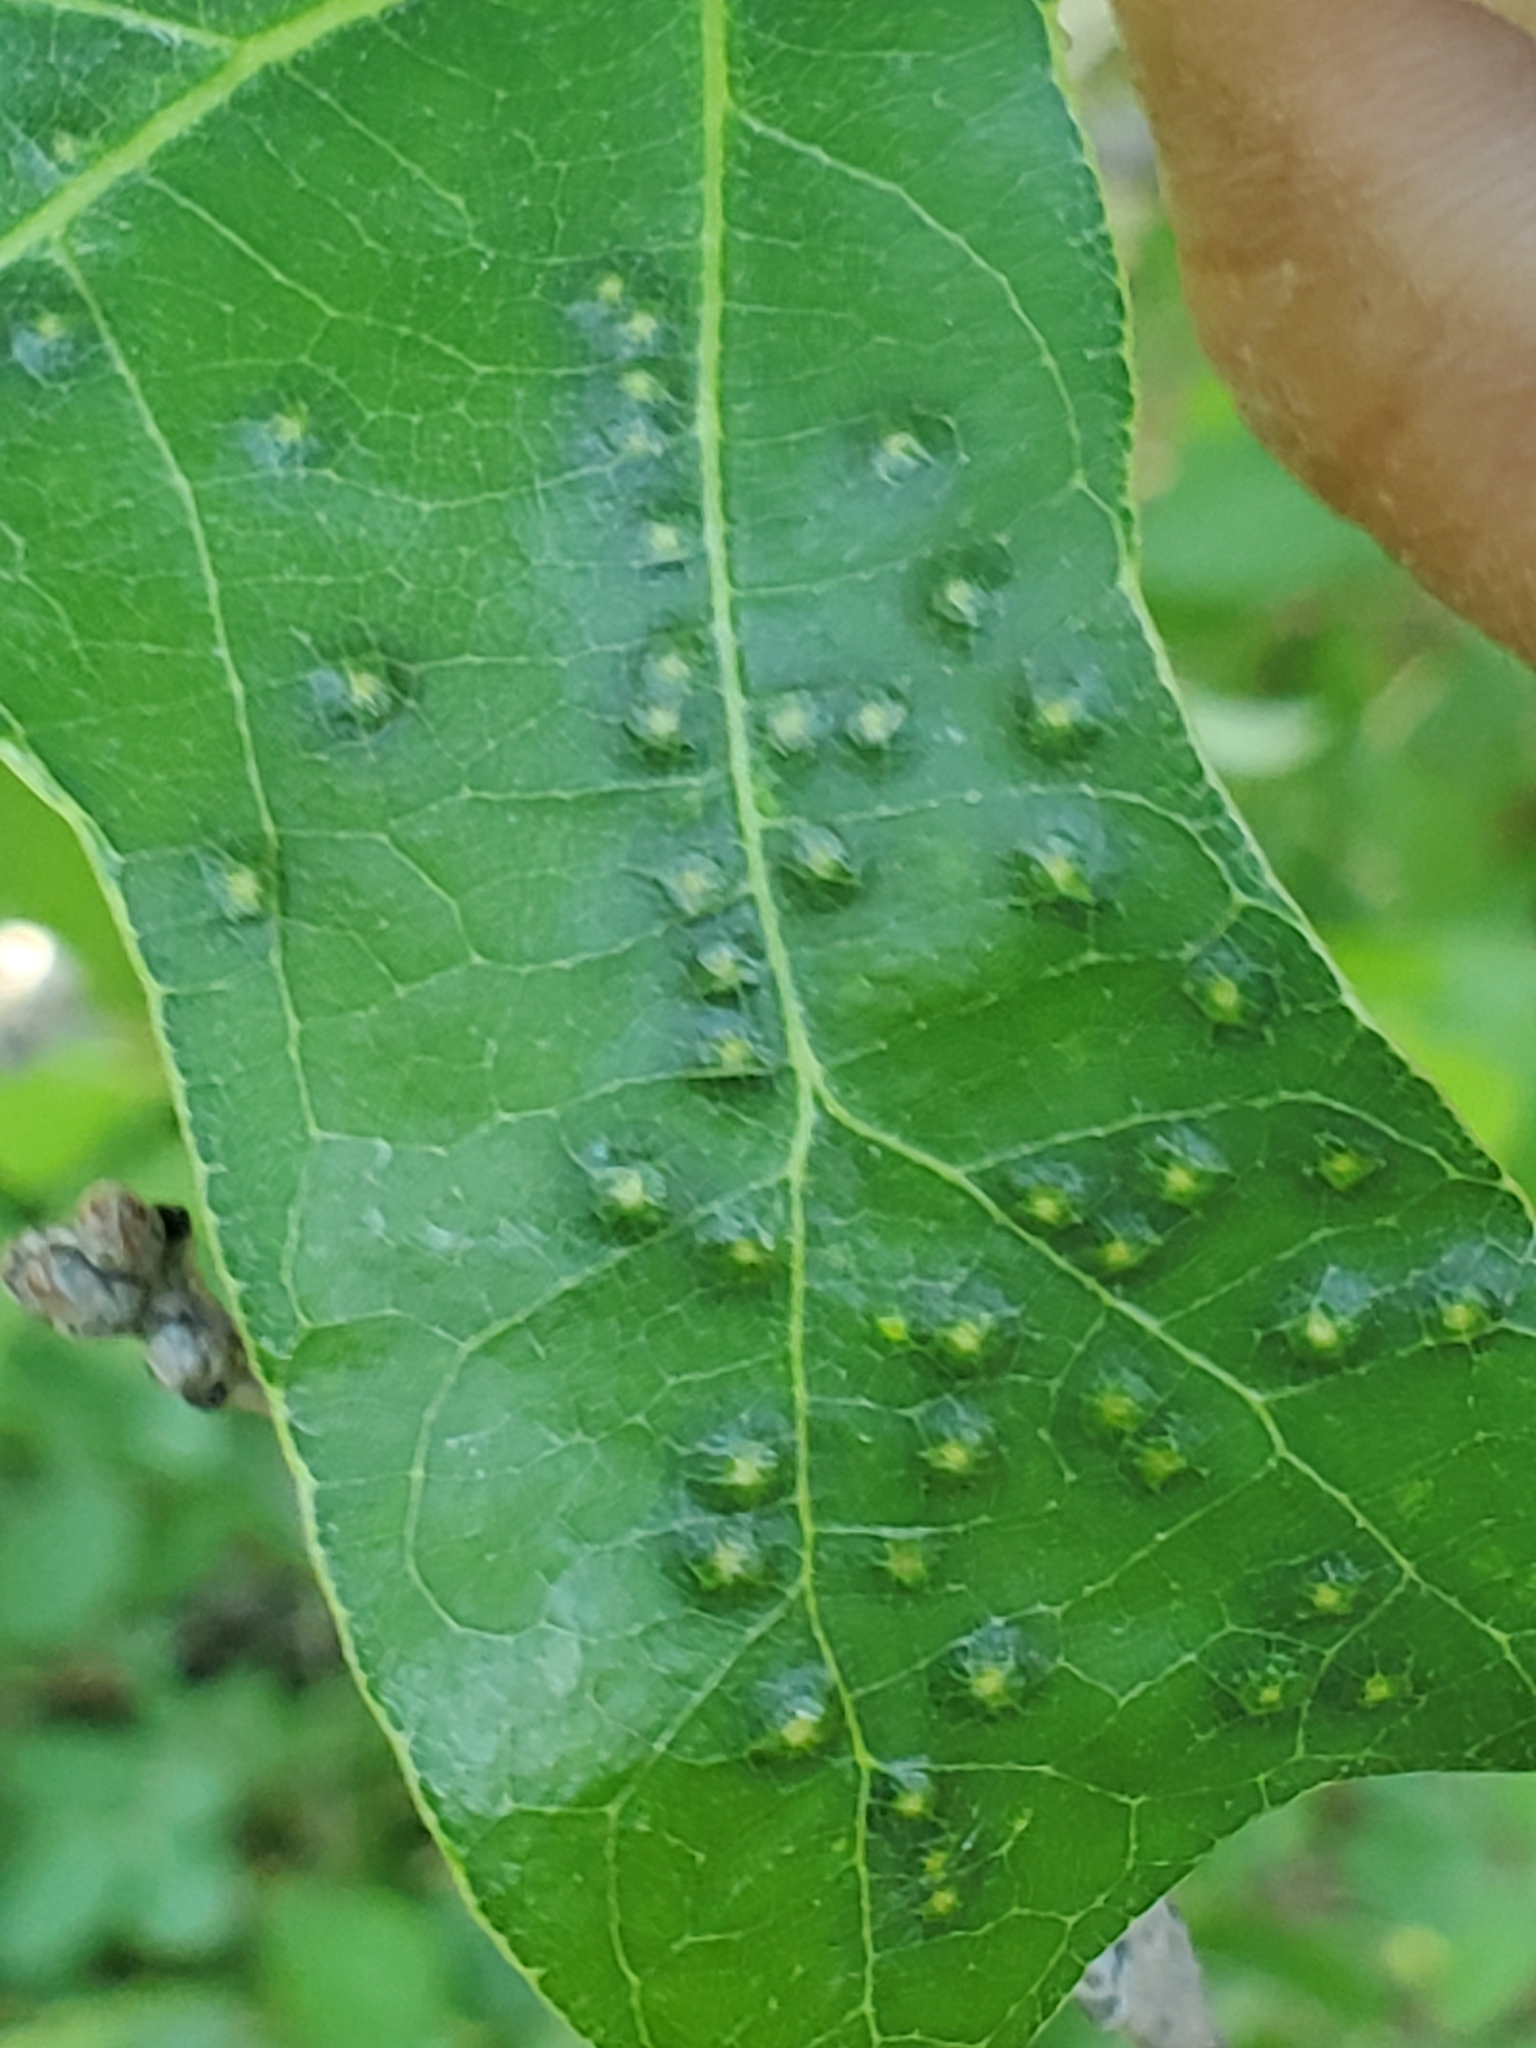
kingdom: Animalia
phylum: Arthropoda
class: Insecta
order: Hymenoptera
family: Cynipidae
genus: Neuroterus
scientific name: Neuroterus saltarius
